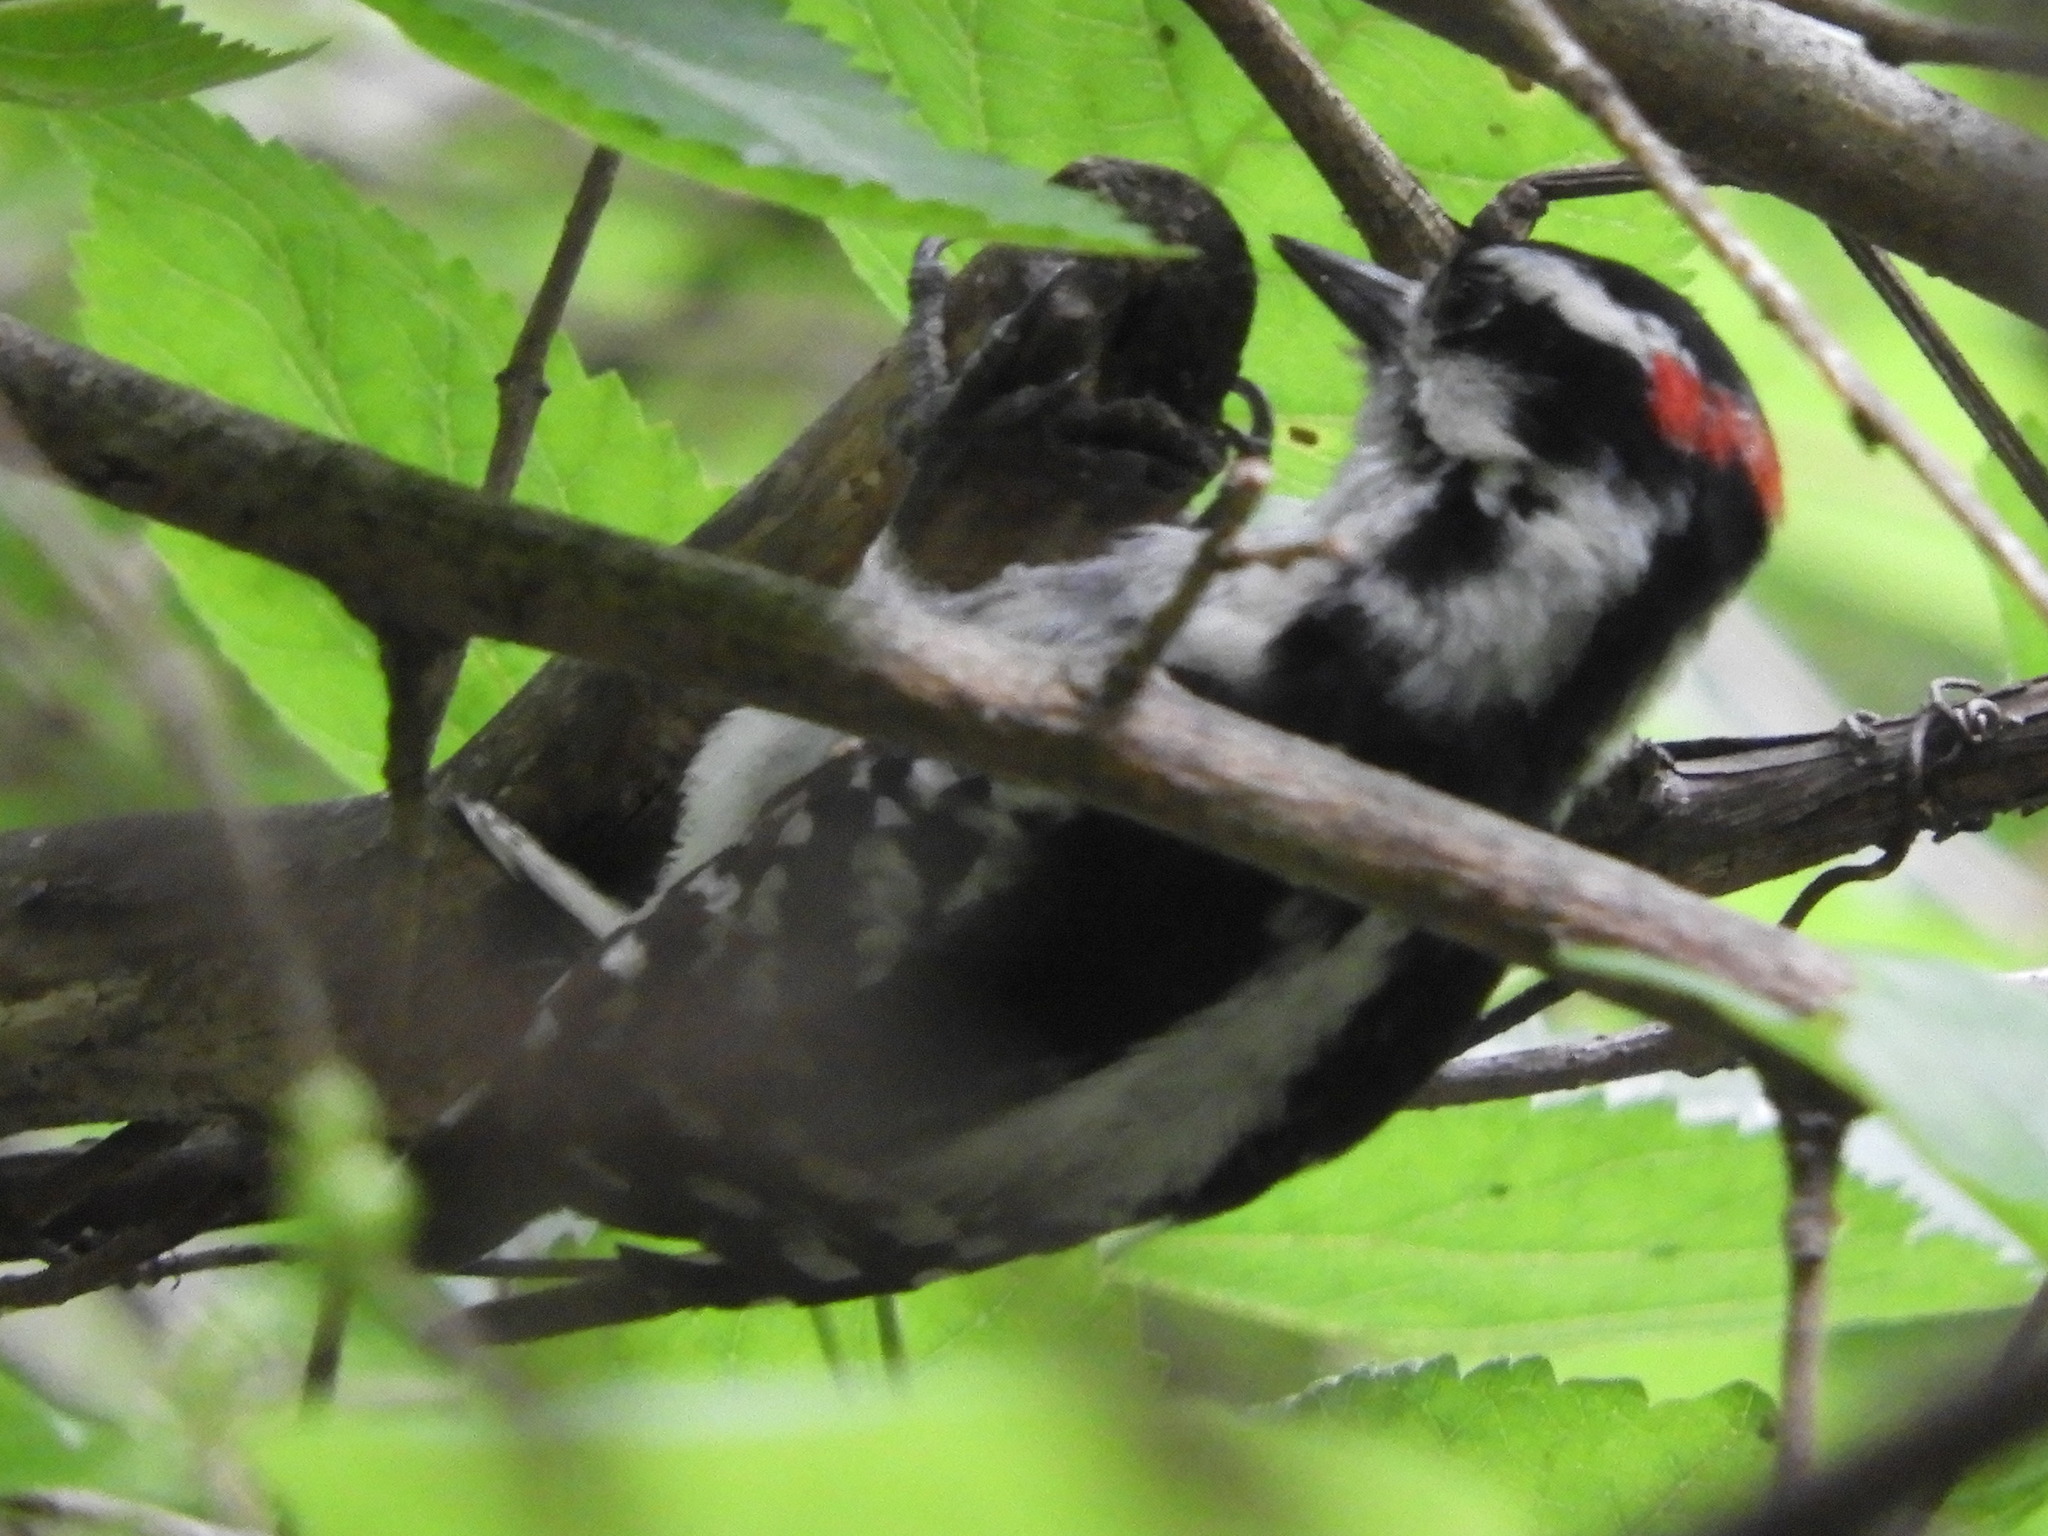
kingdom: Animalia
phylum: Chordata
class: Aves
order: Piciformes
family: Picidae
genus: Dryobates
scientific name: Dryobates pubescens
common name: Downy woodpecker
